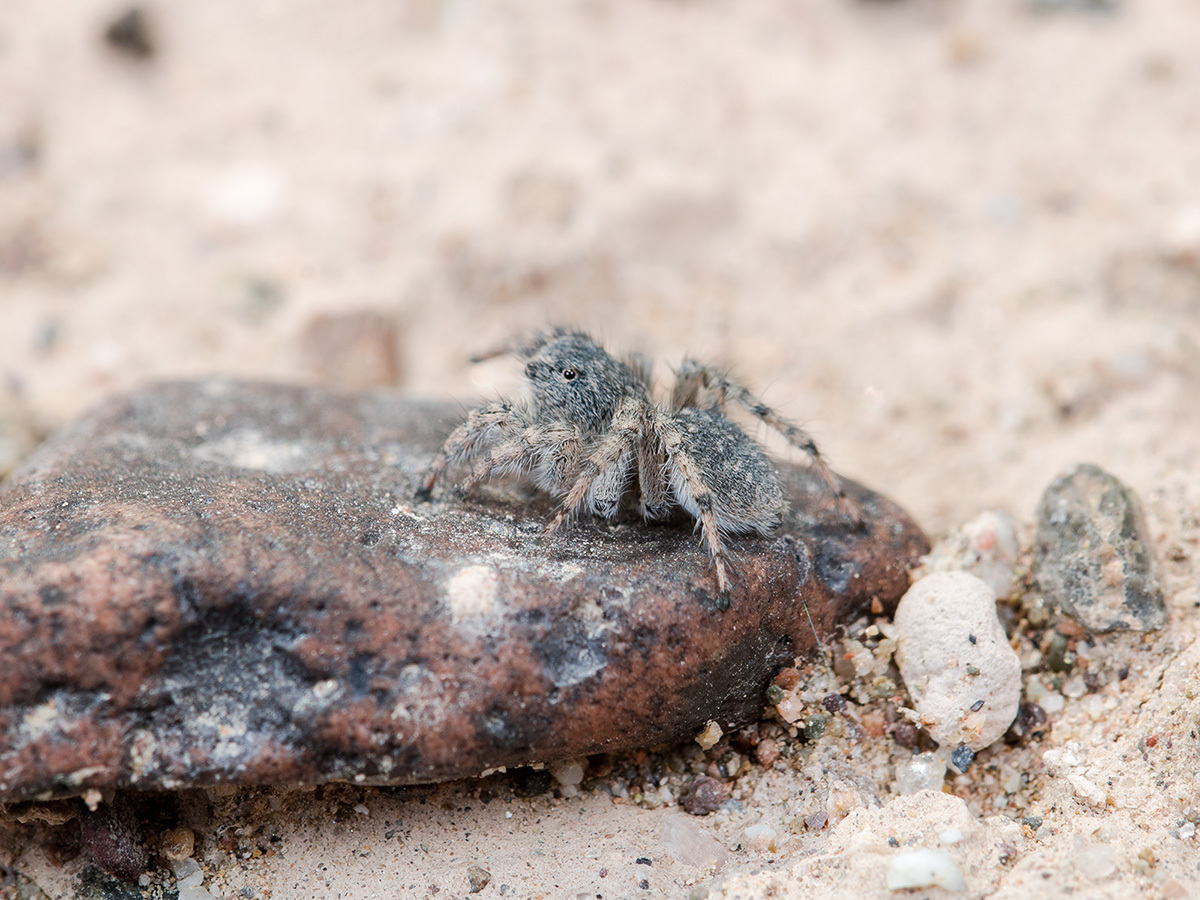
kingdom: Animalia
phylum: Arthropoda
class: Arachnida
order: Araneae
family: Salticidae
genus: Aelurillus
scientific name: Aelurillus dubatolovi
